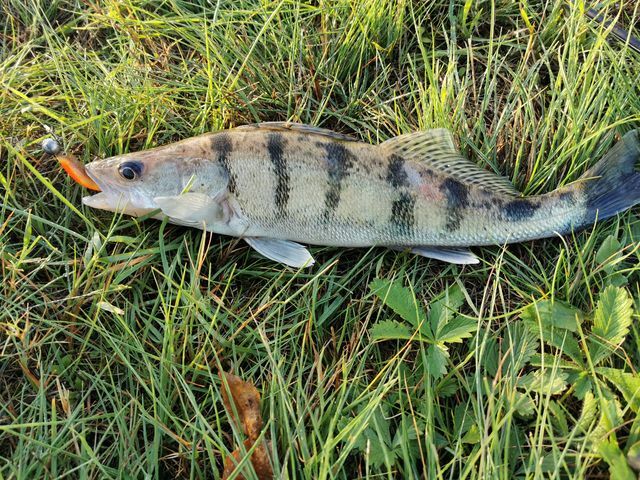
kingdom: Animalia
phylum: Chordata
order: Perciformes
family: Percidae
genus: Sander
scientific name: Sander volgensis
